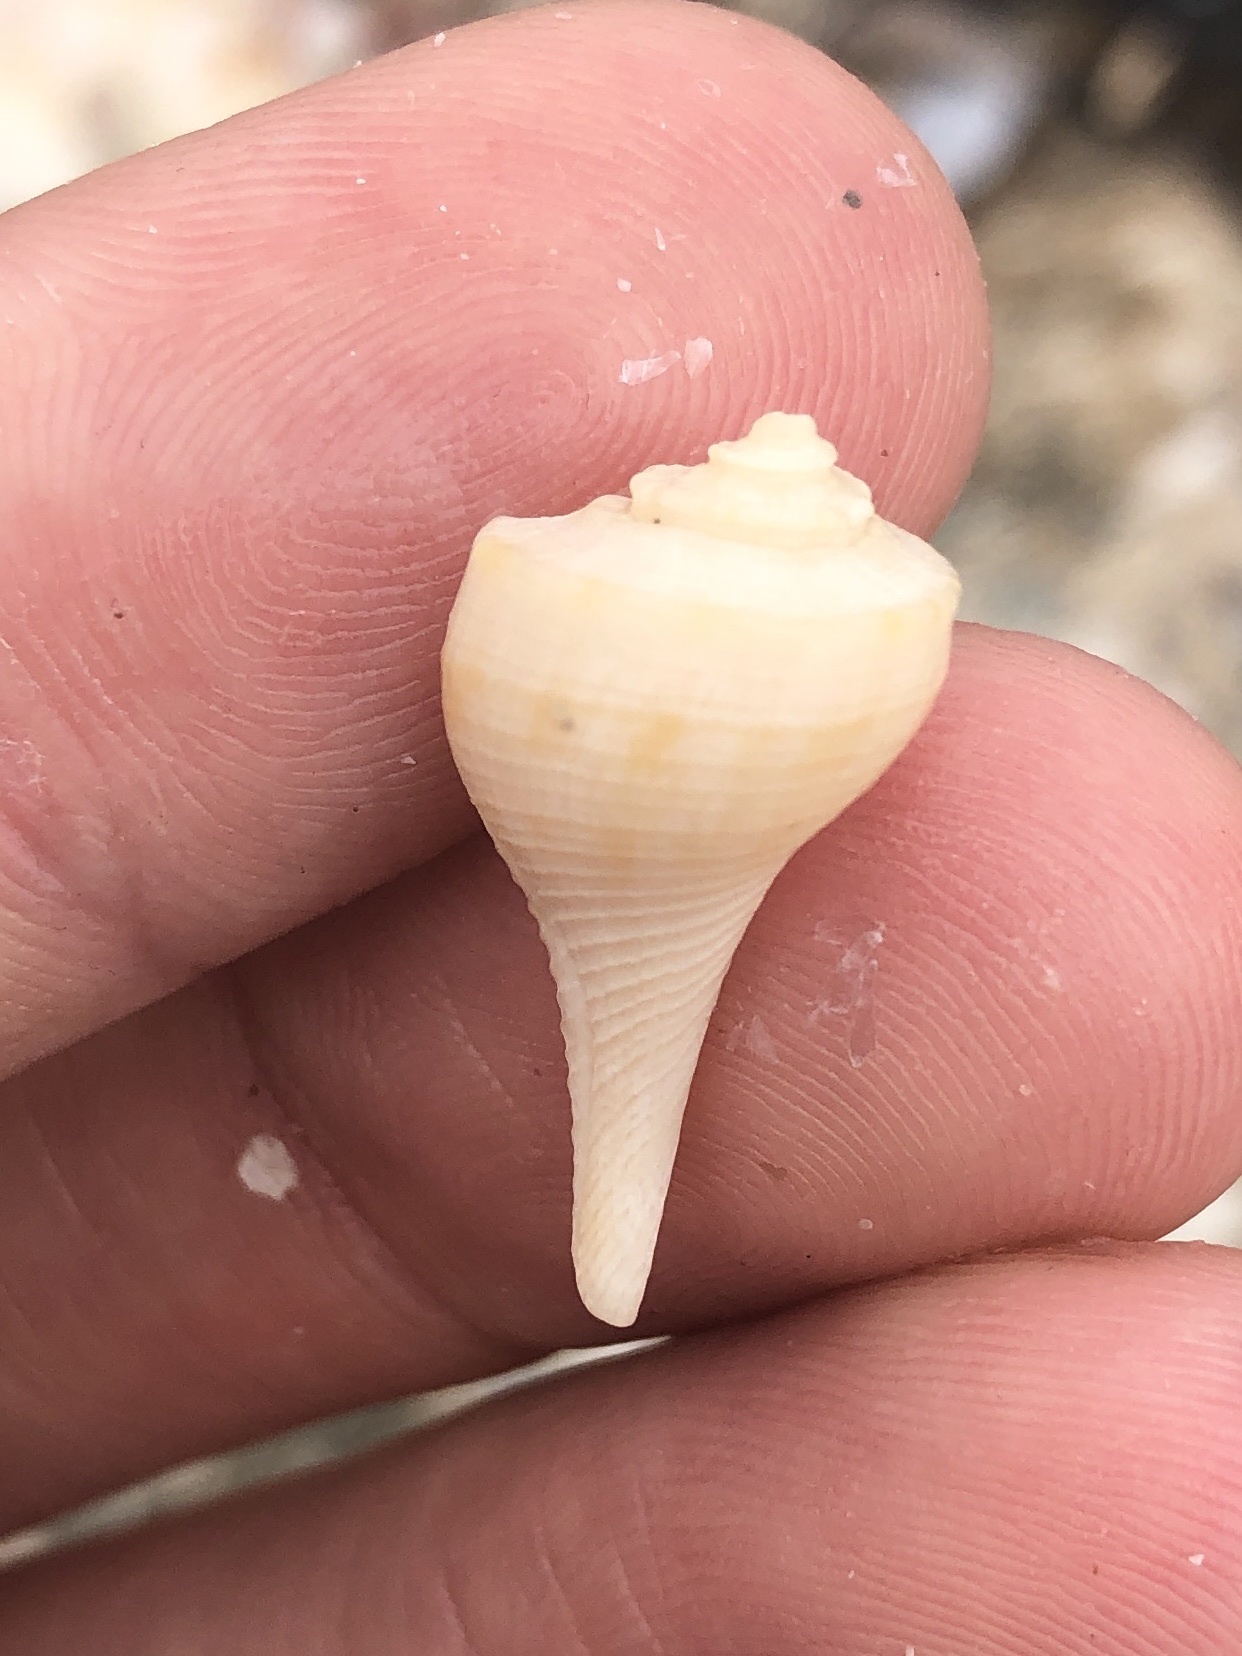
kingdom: Animalia
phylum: Mollusca
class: Gastropoda
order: Neogastropoda
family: Busyconidae
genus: Fulguropsis
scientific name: Fulguropsis pyruloides
